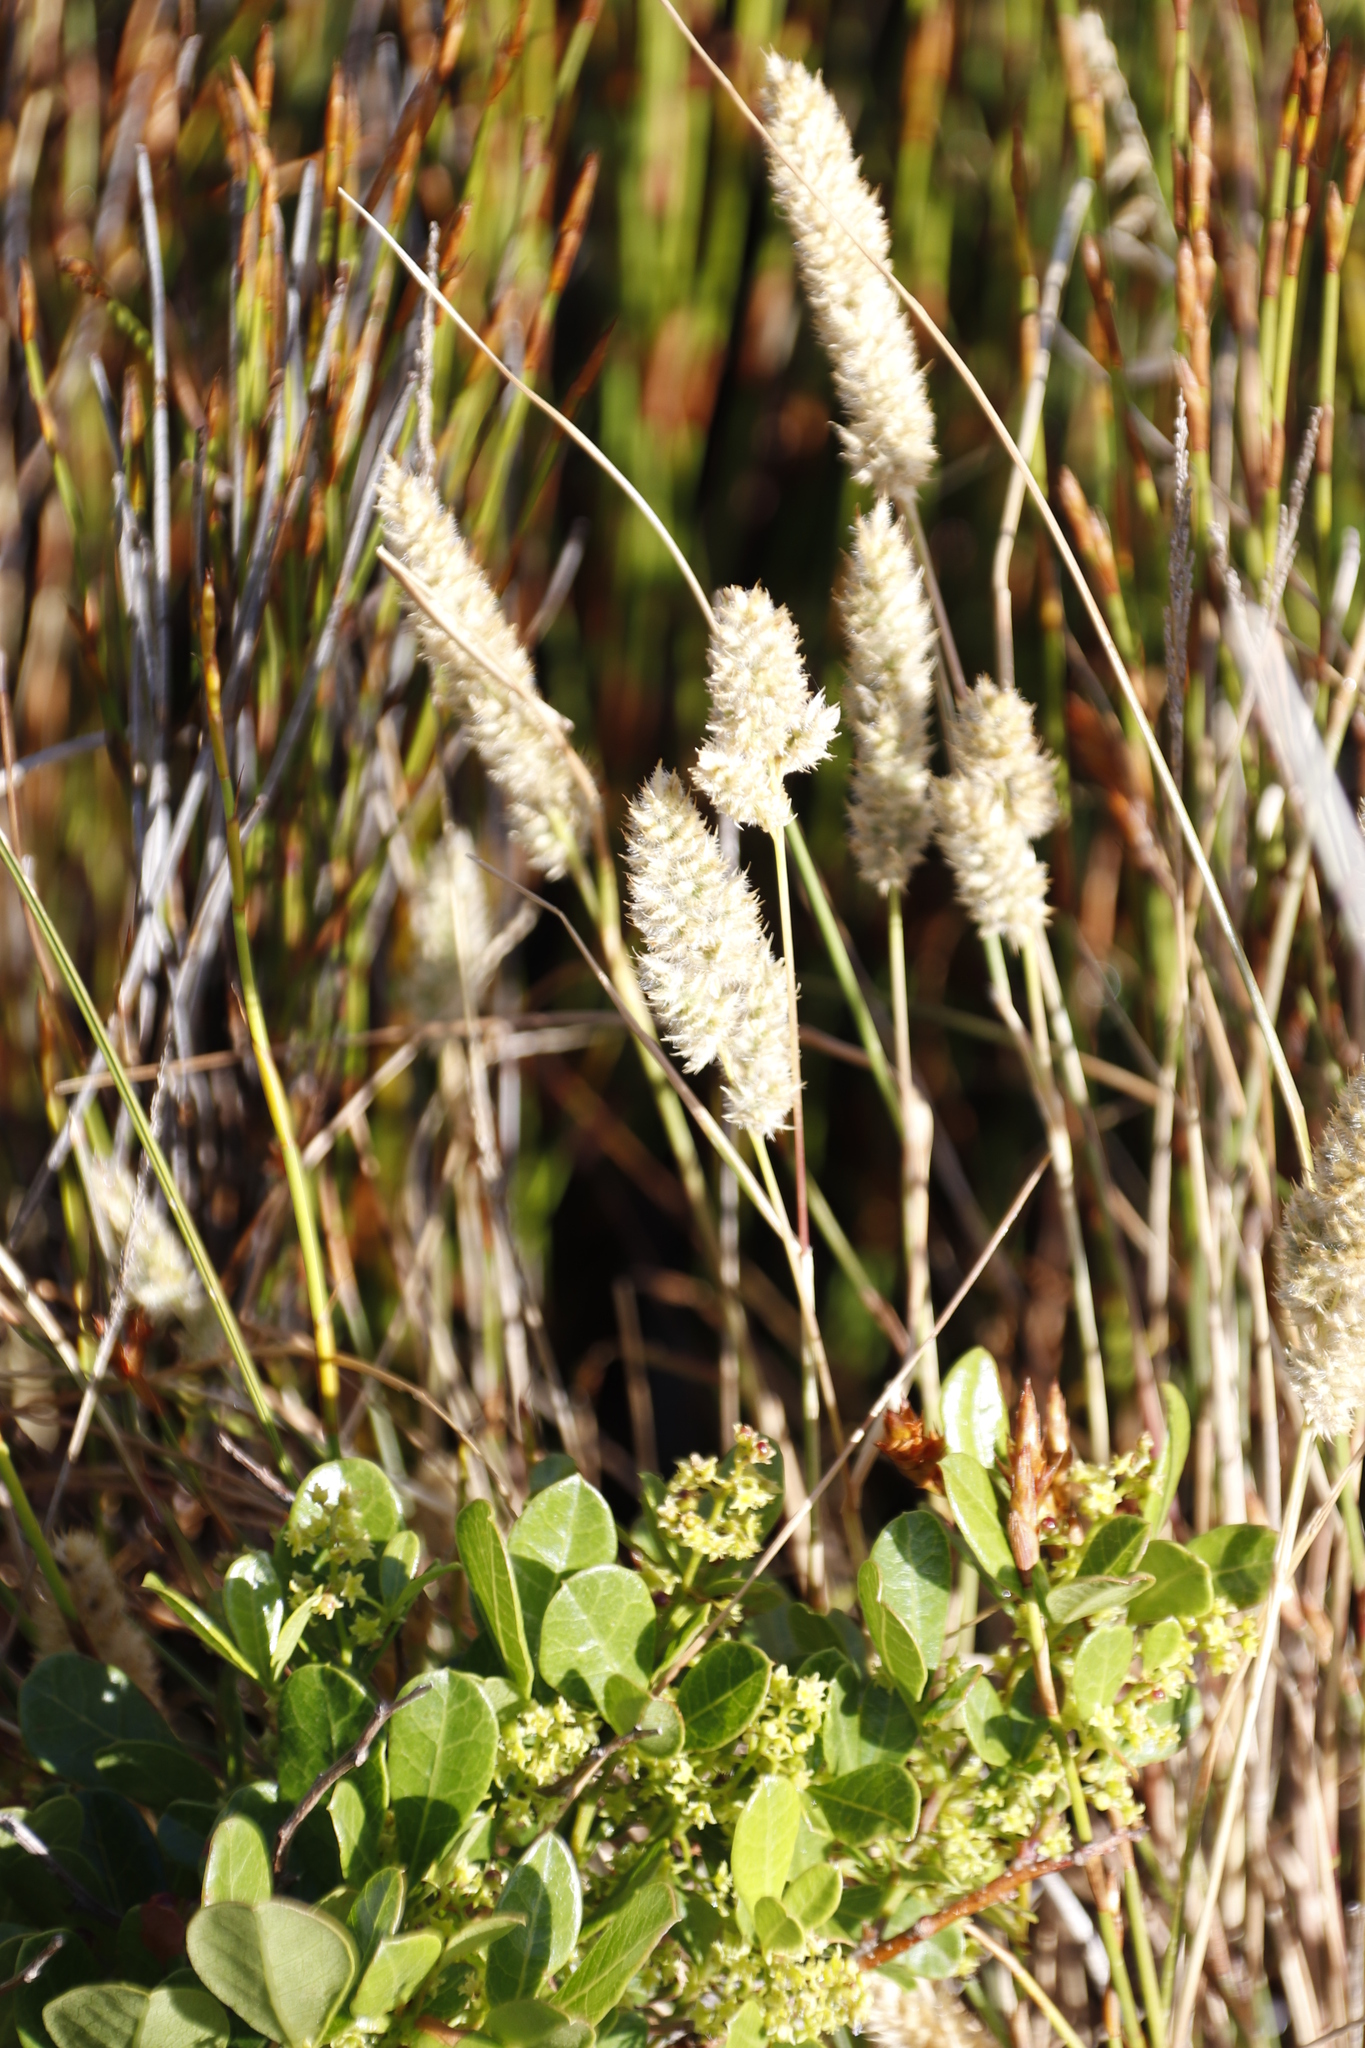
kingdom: Plantae
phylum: Tracheophyta
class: Liliopsida
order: Poales
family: Poaceae
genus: Tribolium
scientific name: Tribolium hispidum
